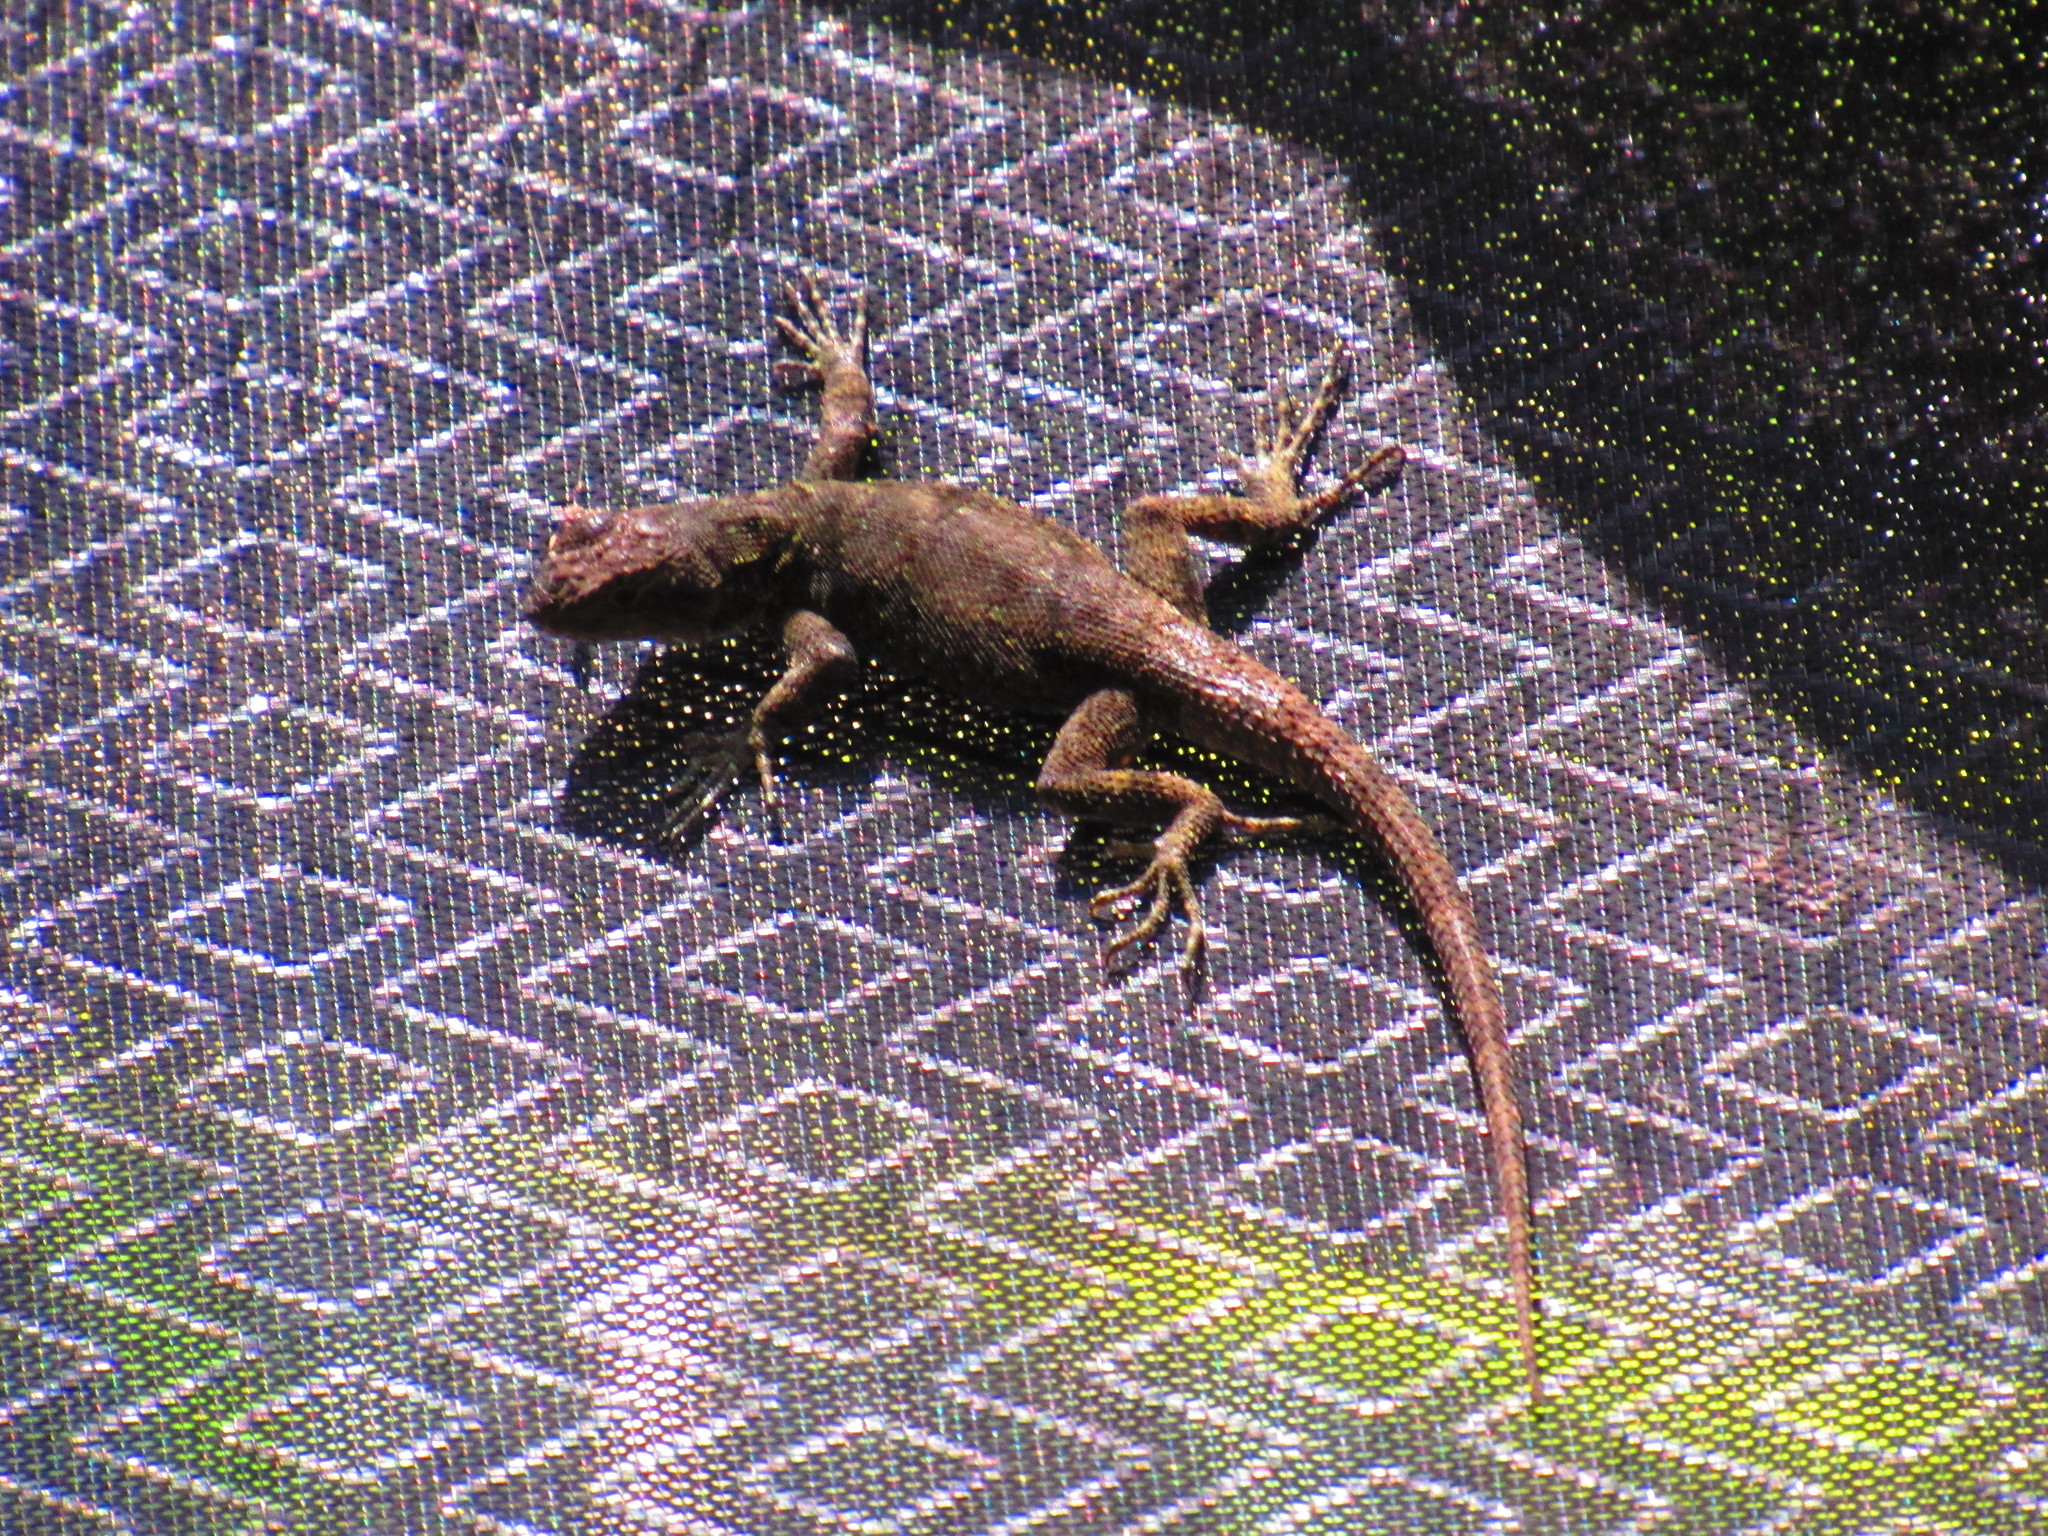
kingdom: Animalia
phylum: Chordata
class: Squamata
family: Phrynosomatidae
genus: Sceloporus
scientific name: Sceloporus grammicus
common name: Mesquite lizard
